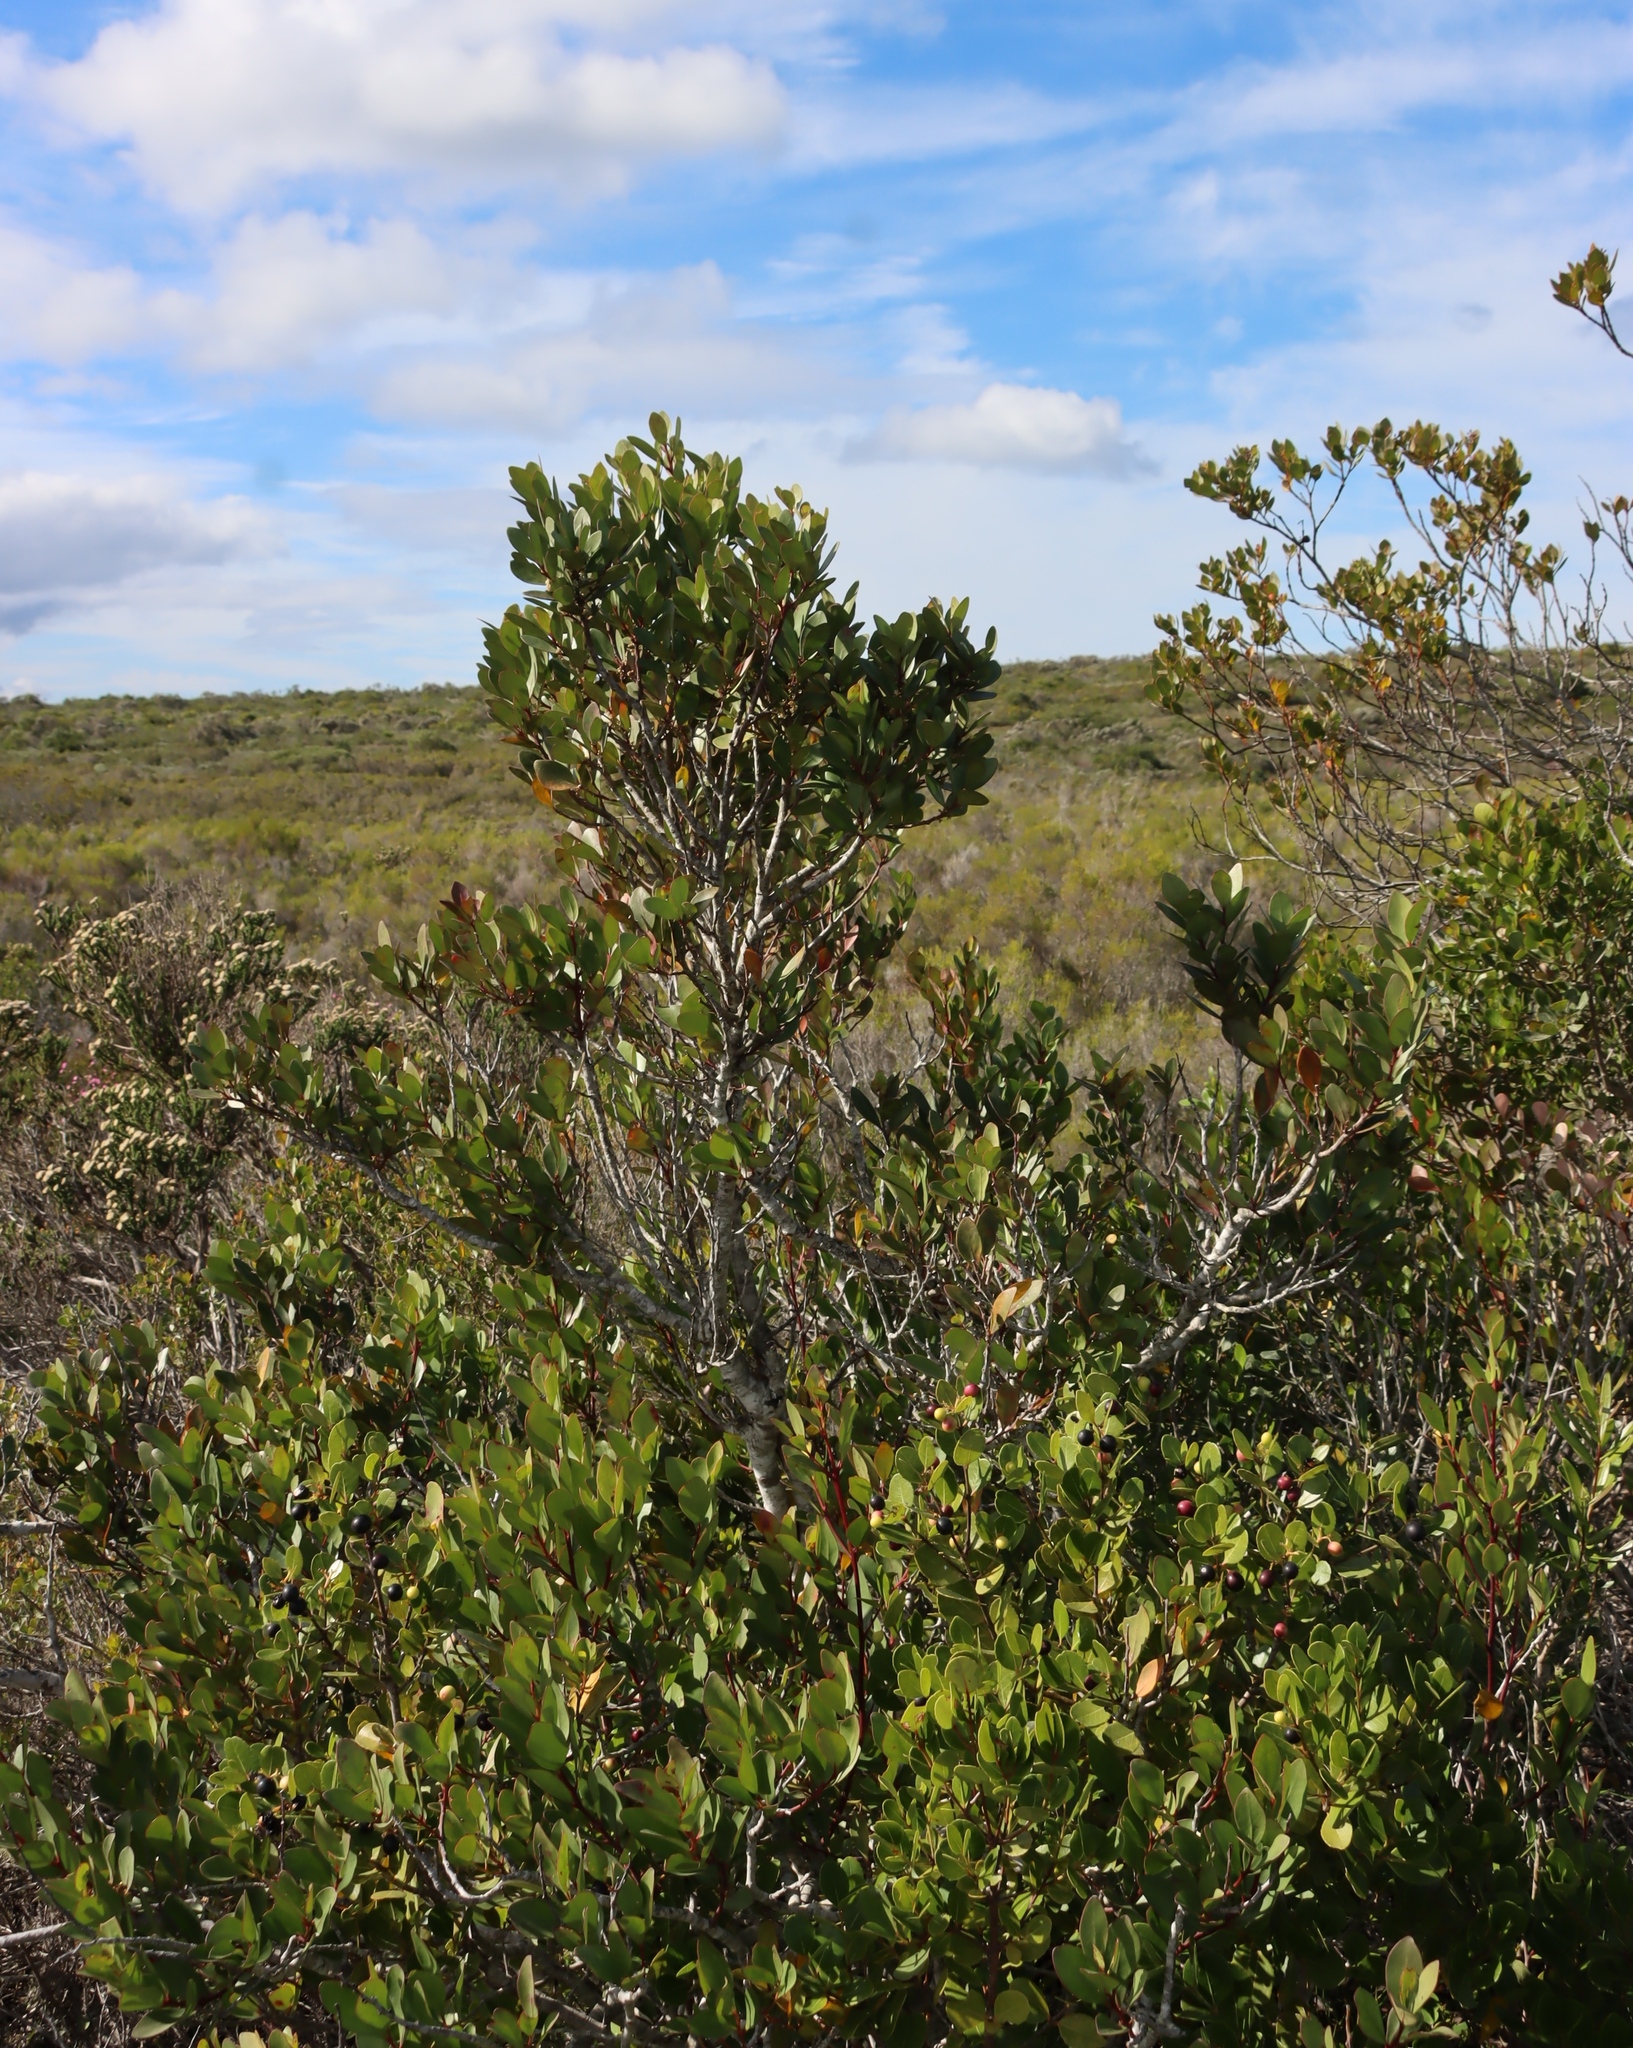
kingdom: Plantae
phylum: Tracheophyta
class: Magnoliopsida
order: Celastrales
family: Celastraceae
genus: Pterocelastrus
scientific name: Pterocelastrus tricuspidatus
